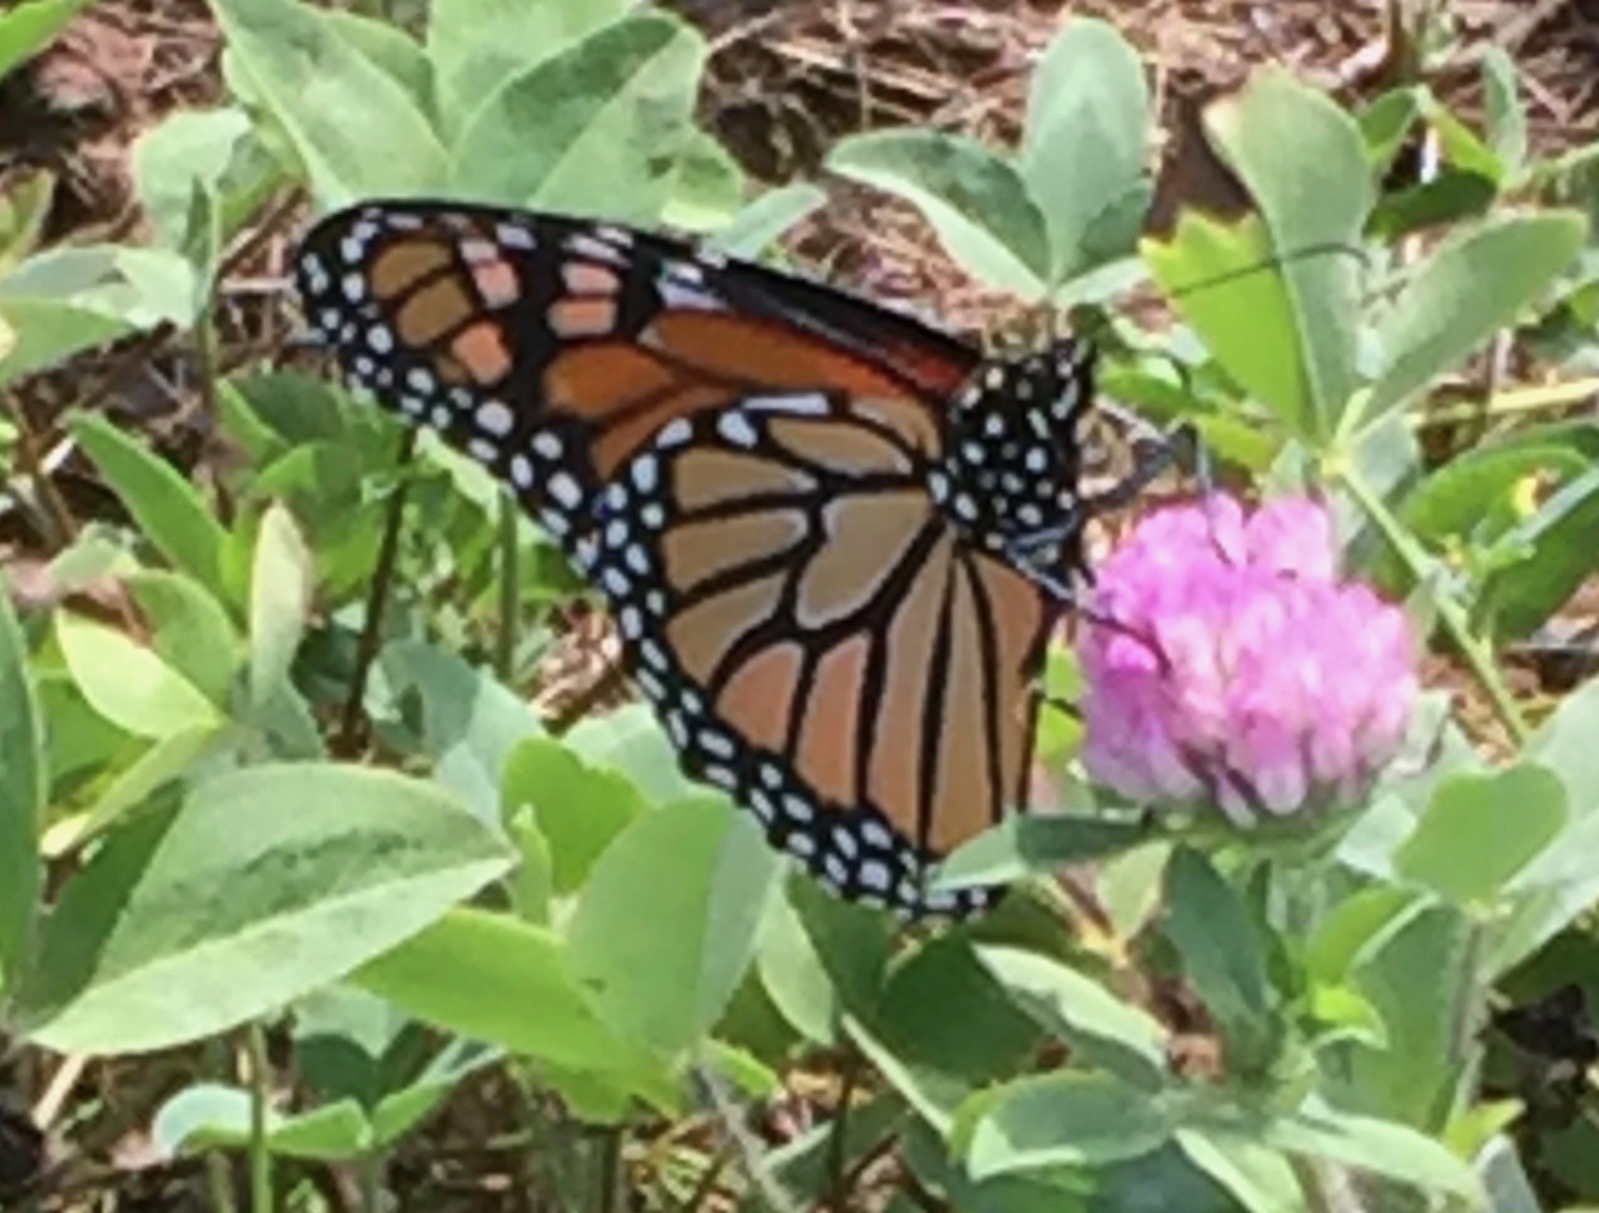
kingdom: Animalia
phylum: Arthropoda
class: Insecta
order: Lepidoptera
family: Nymphalidae
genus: Danaus
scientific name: Danaus plexippus
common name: Monarch
